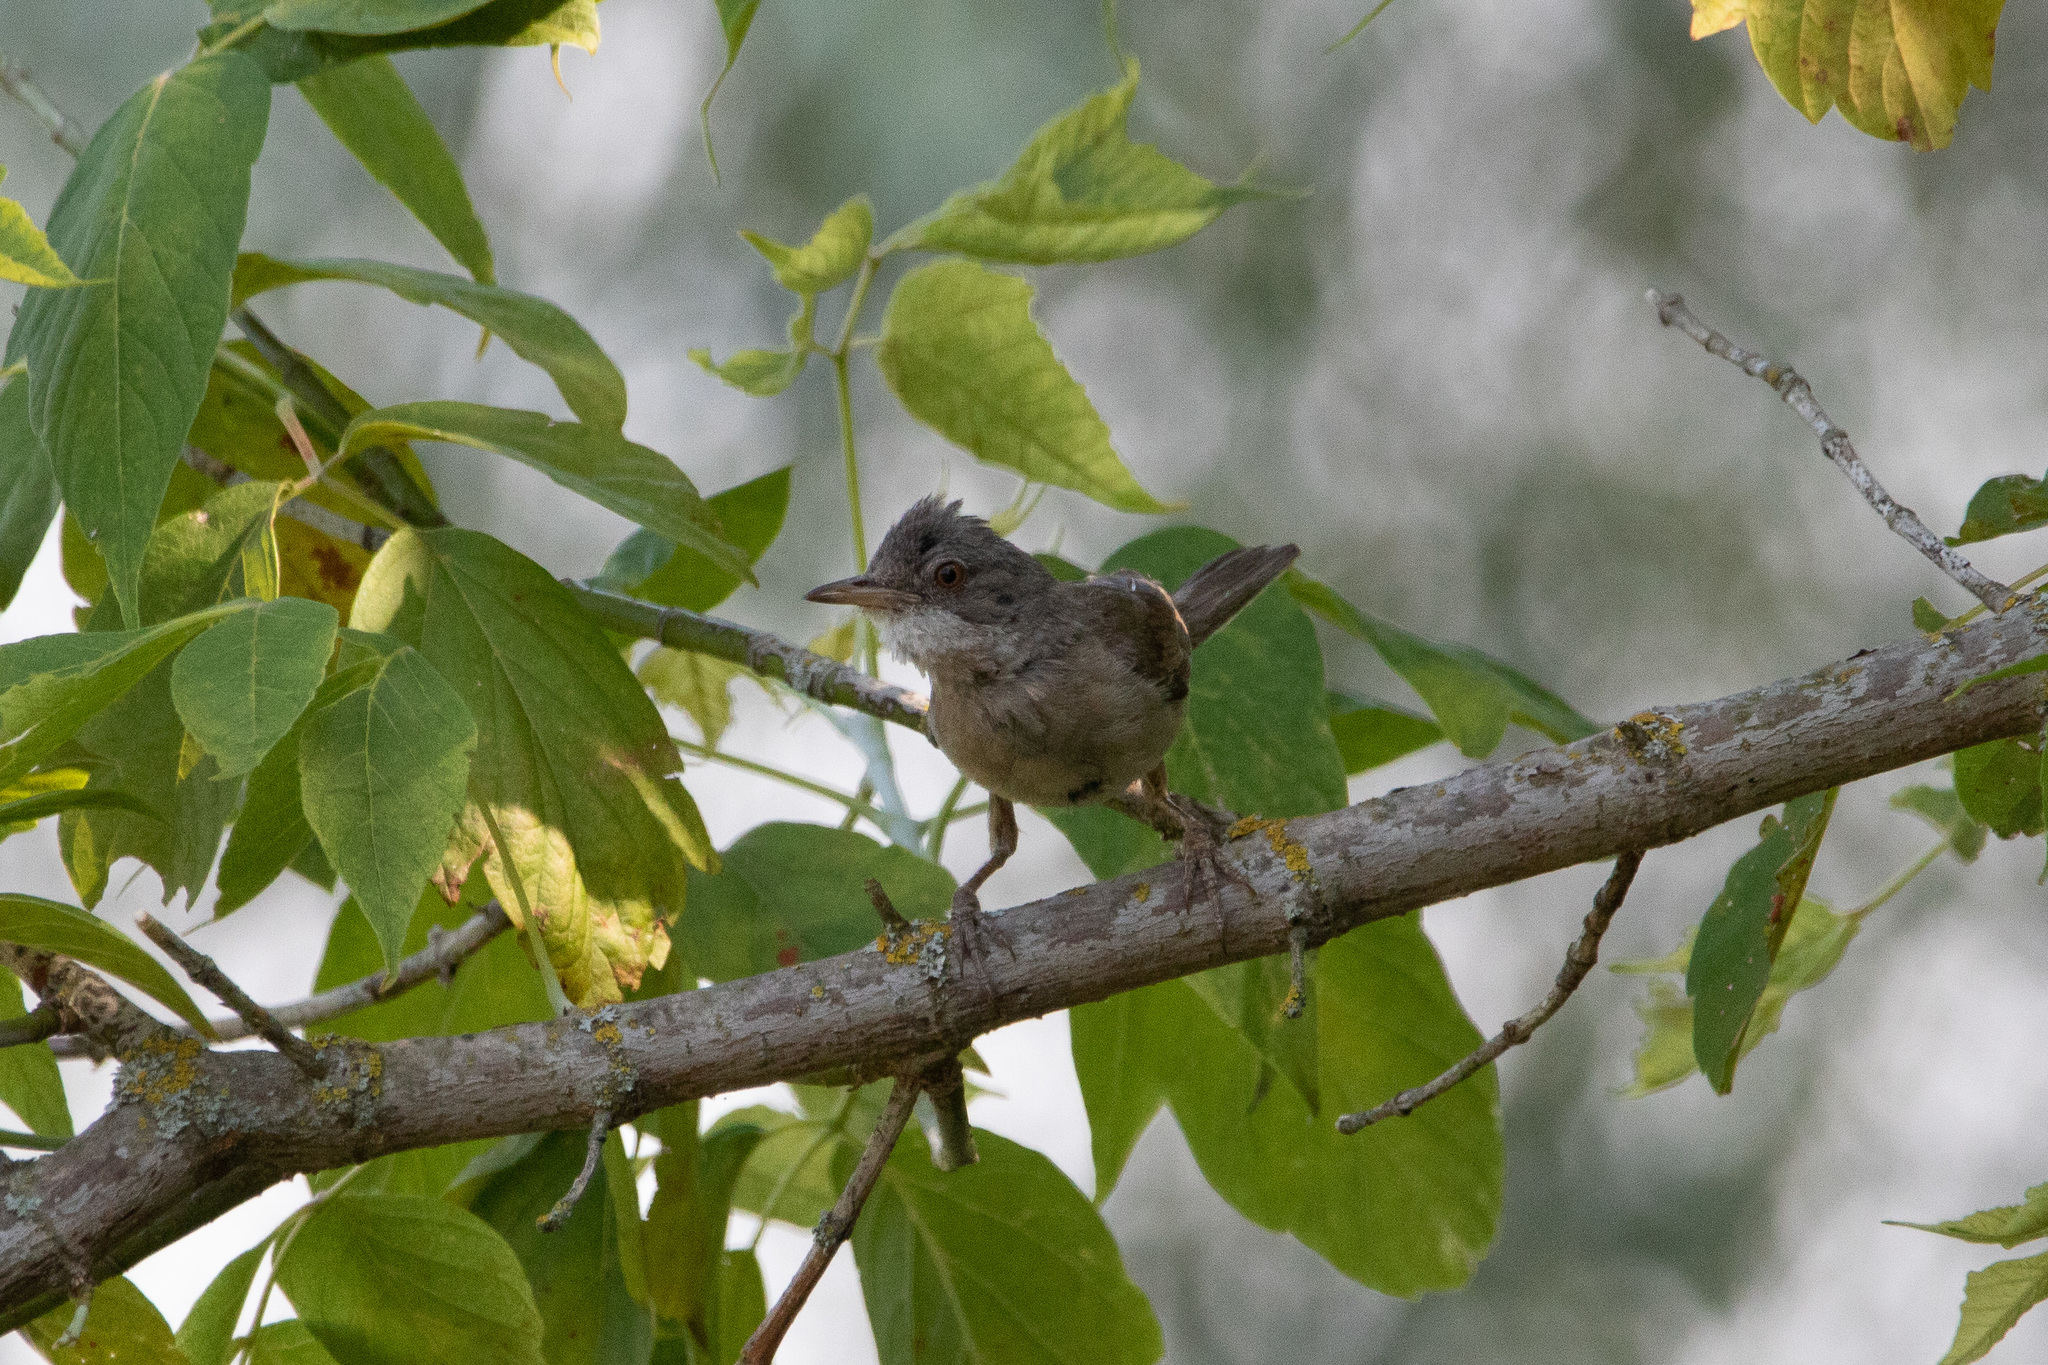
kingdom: Animalia
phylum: Chordata
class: Aves
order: Passeriformes
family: Sylviidae
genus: Sylvia
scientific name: Sylvia communis
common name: Common whitethroat
